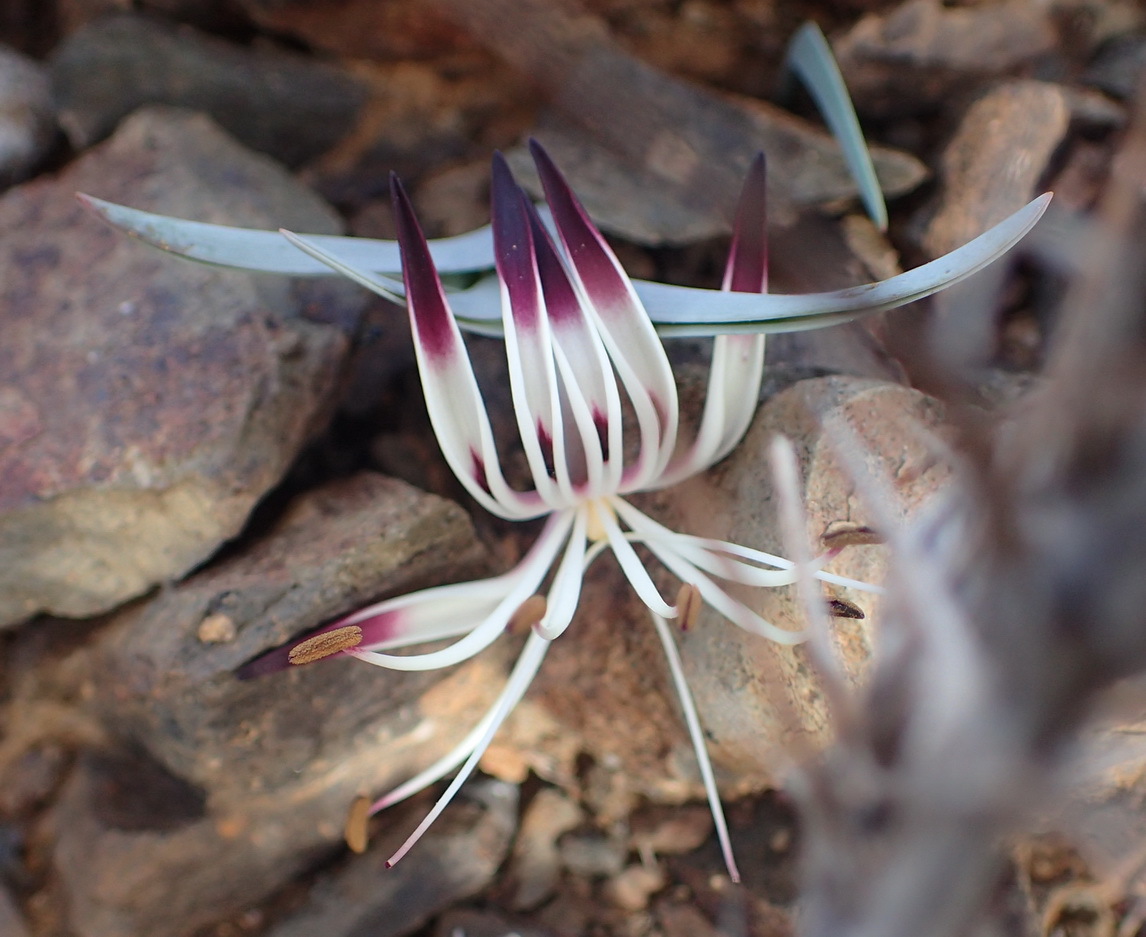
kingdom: Plantae
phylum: Tracheophyta
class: Liliopsida
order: Liliales
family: Colchicaceae
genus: Ornithoglossum
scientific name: Ornithoglossum undulatum
